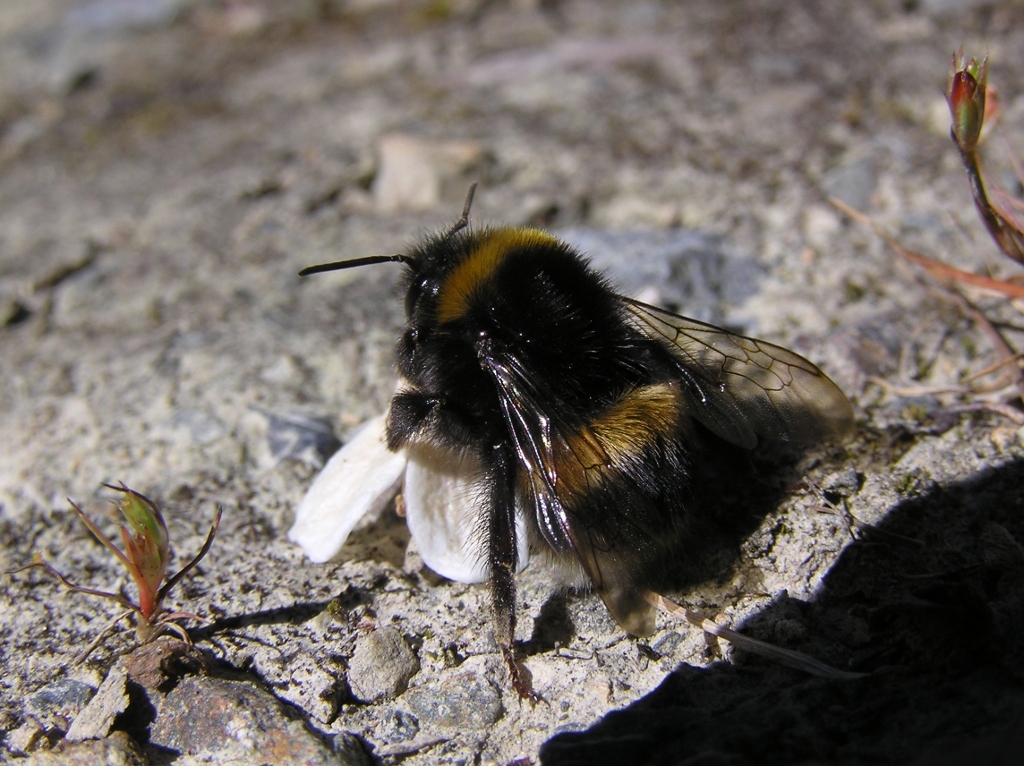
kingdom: Animalia
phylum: Arthropoda
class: Insecta
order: Hymenoptera
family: Apidae
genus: Bombus
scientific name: Bombus terrestris
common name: Buff-tailed bumblebee
